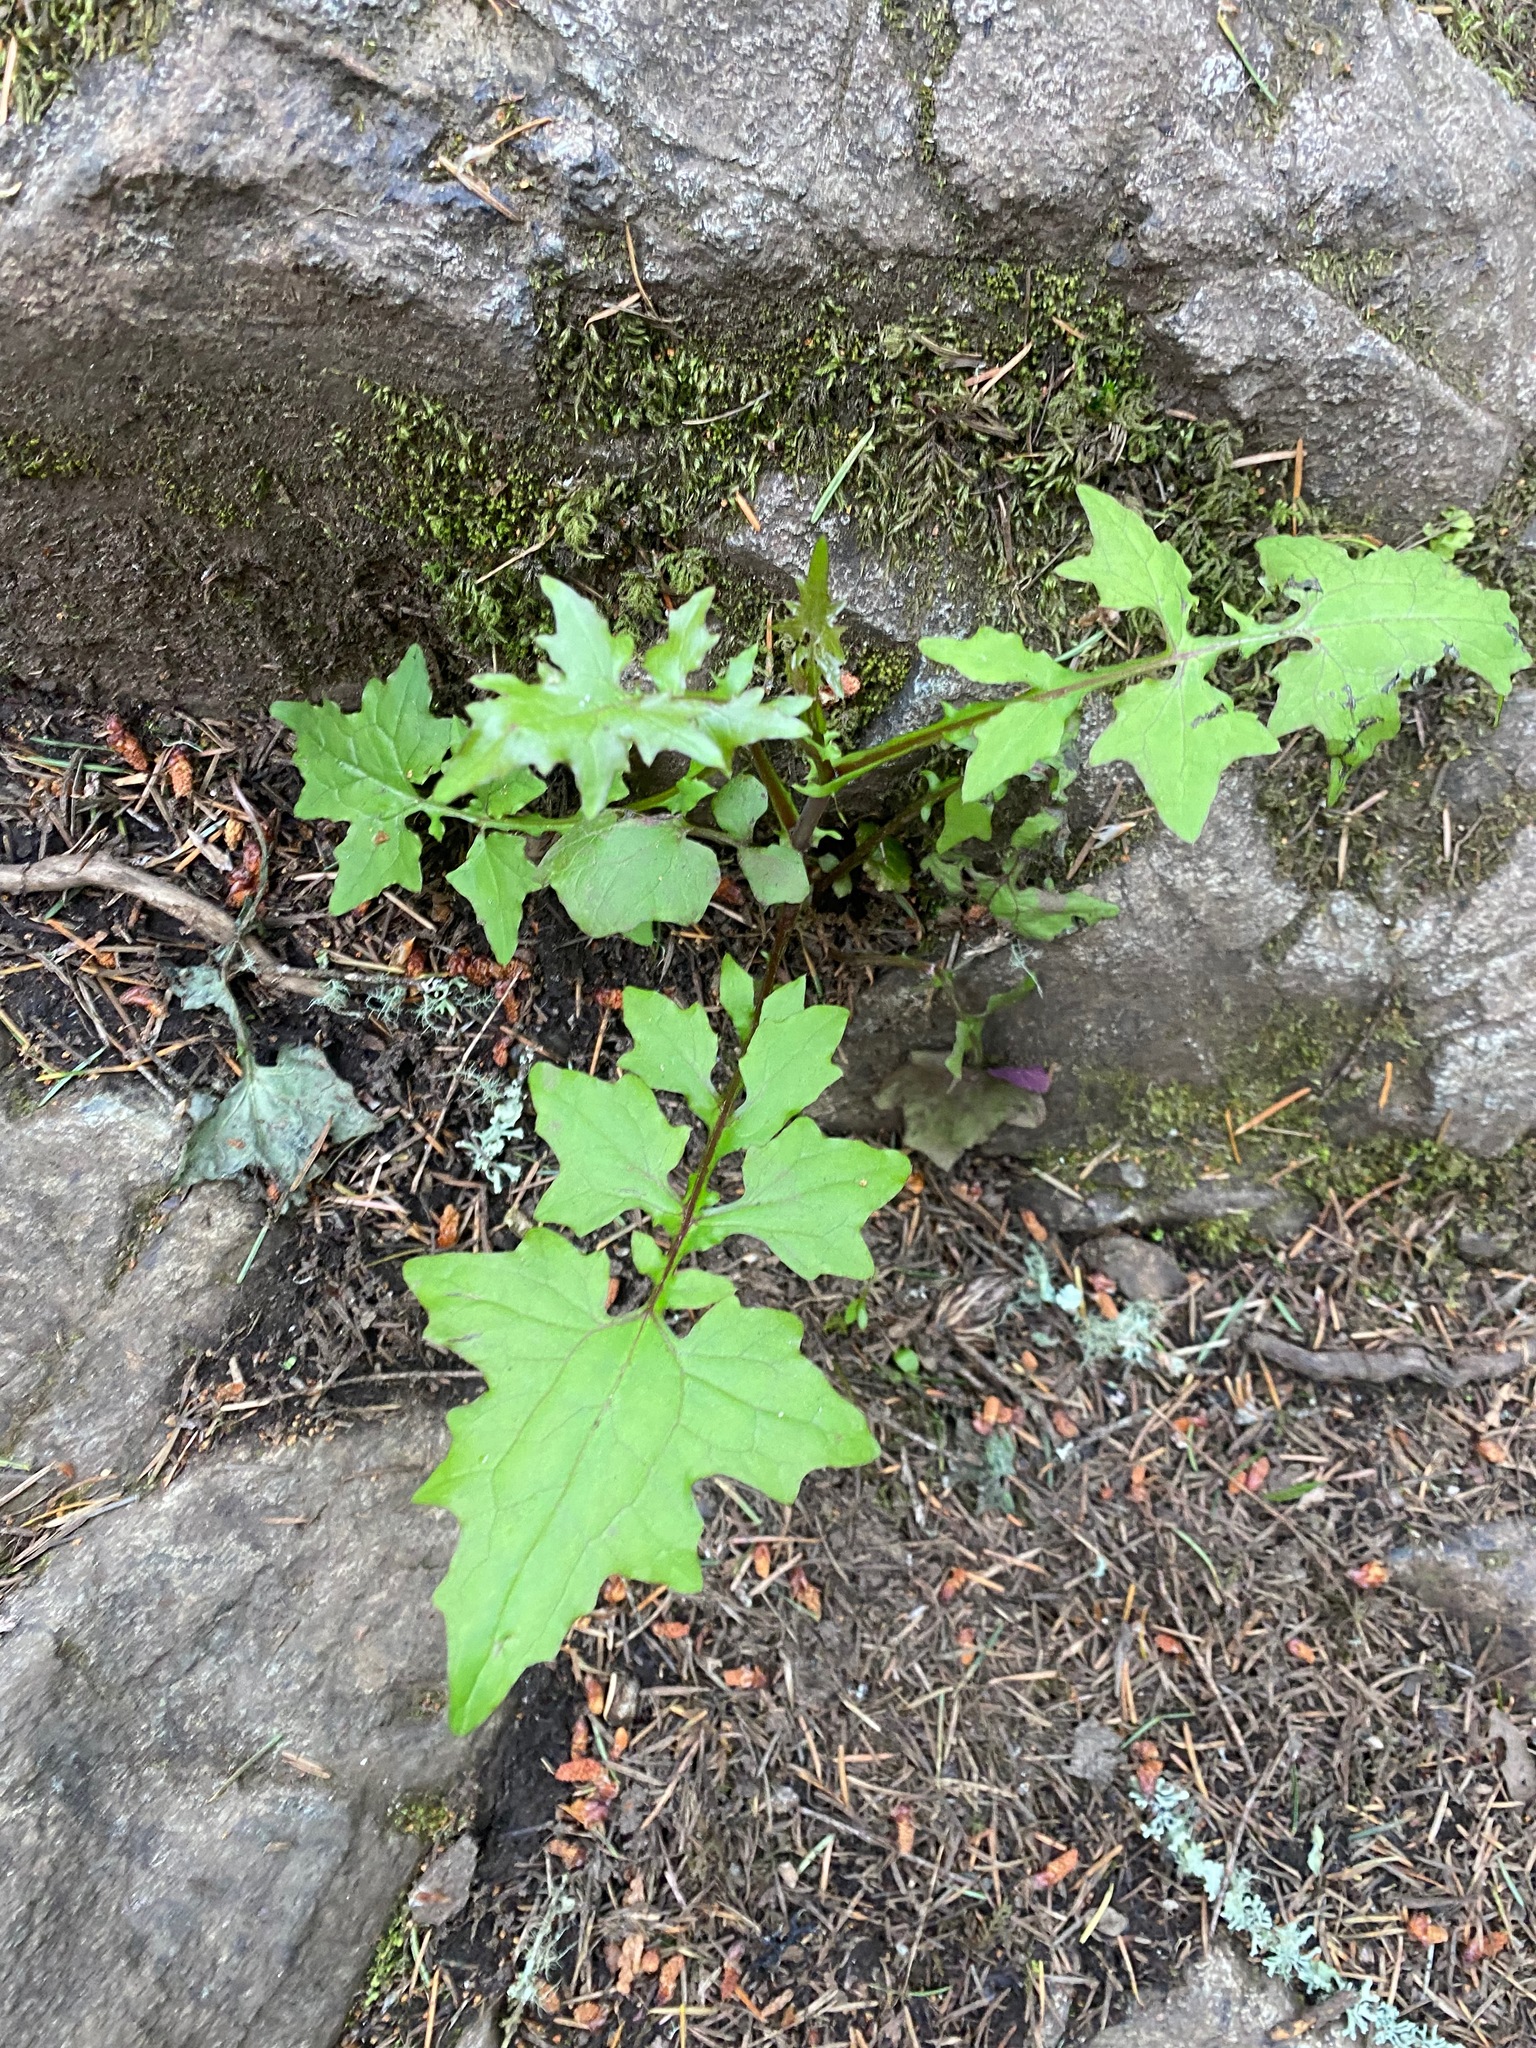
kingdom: Plantae
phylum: Tracheophyta
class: Magnoliopsida
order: Asterales
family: Asteraceae
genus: Mycelis
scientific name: Mycelis muralis
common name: Wall lettuce
